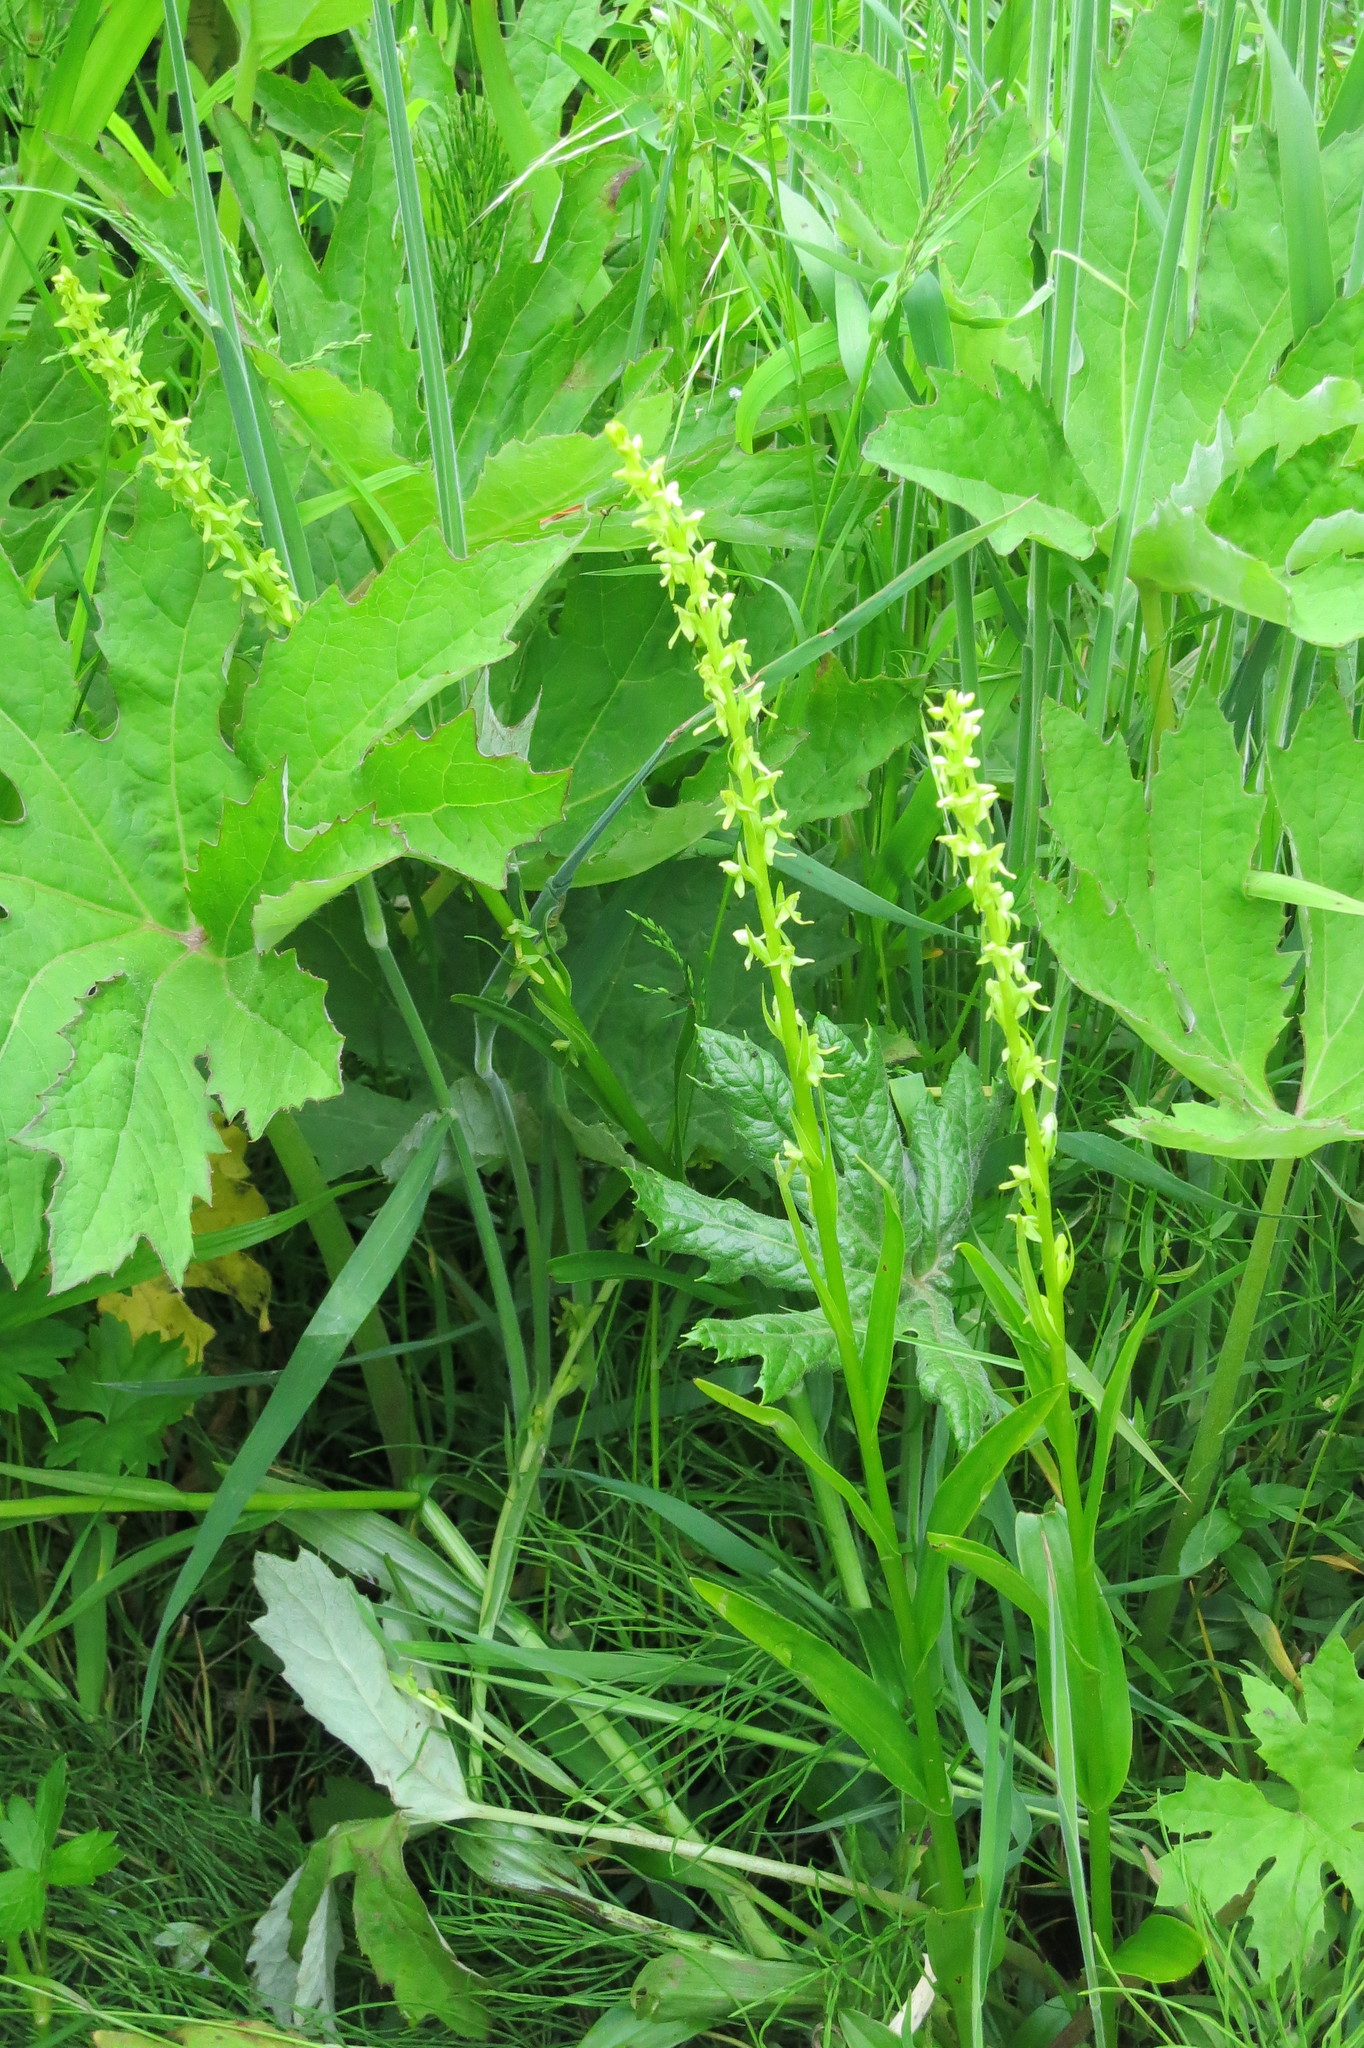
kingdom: Plantae
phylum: Tracheophyta
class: Liliopsida
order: Asparagales
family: Orchidaceae
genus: Platanthera
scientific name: Platanthera stricta
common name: Slender bog orchid
